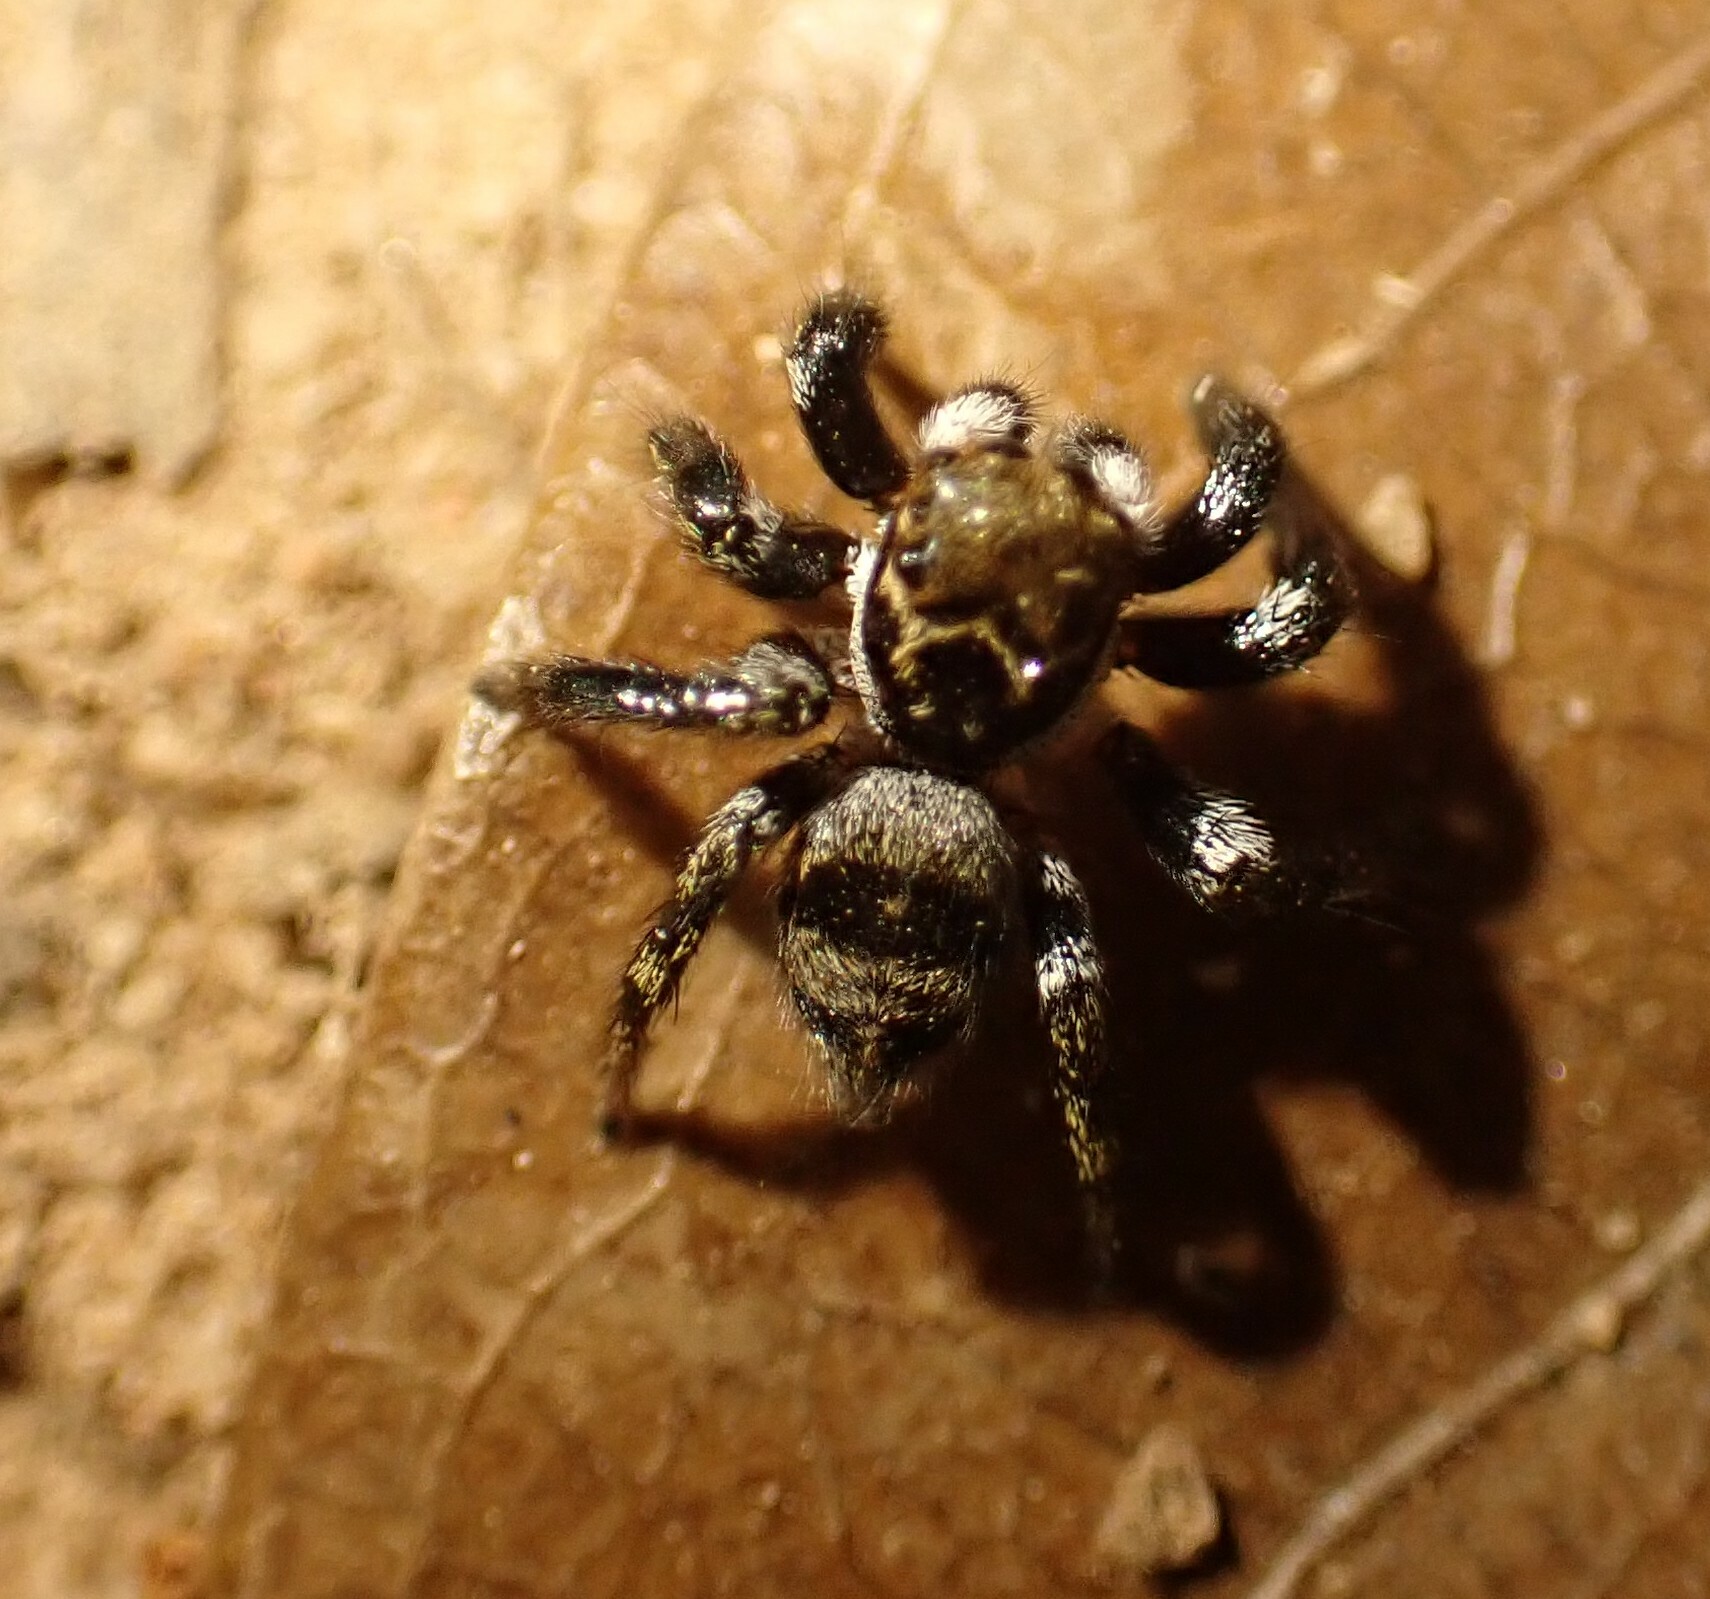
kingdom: Animalia
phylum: Arthropoda
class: Arachnida
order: Araneae
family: Salticidae
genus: Corythalia
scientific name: Corythalia conferta
